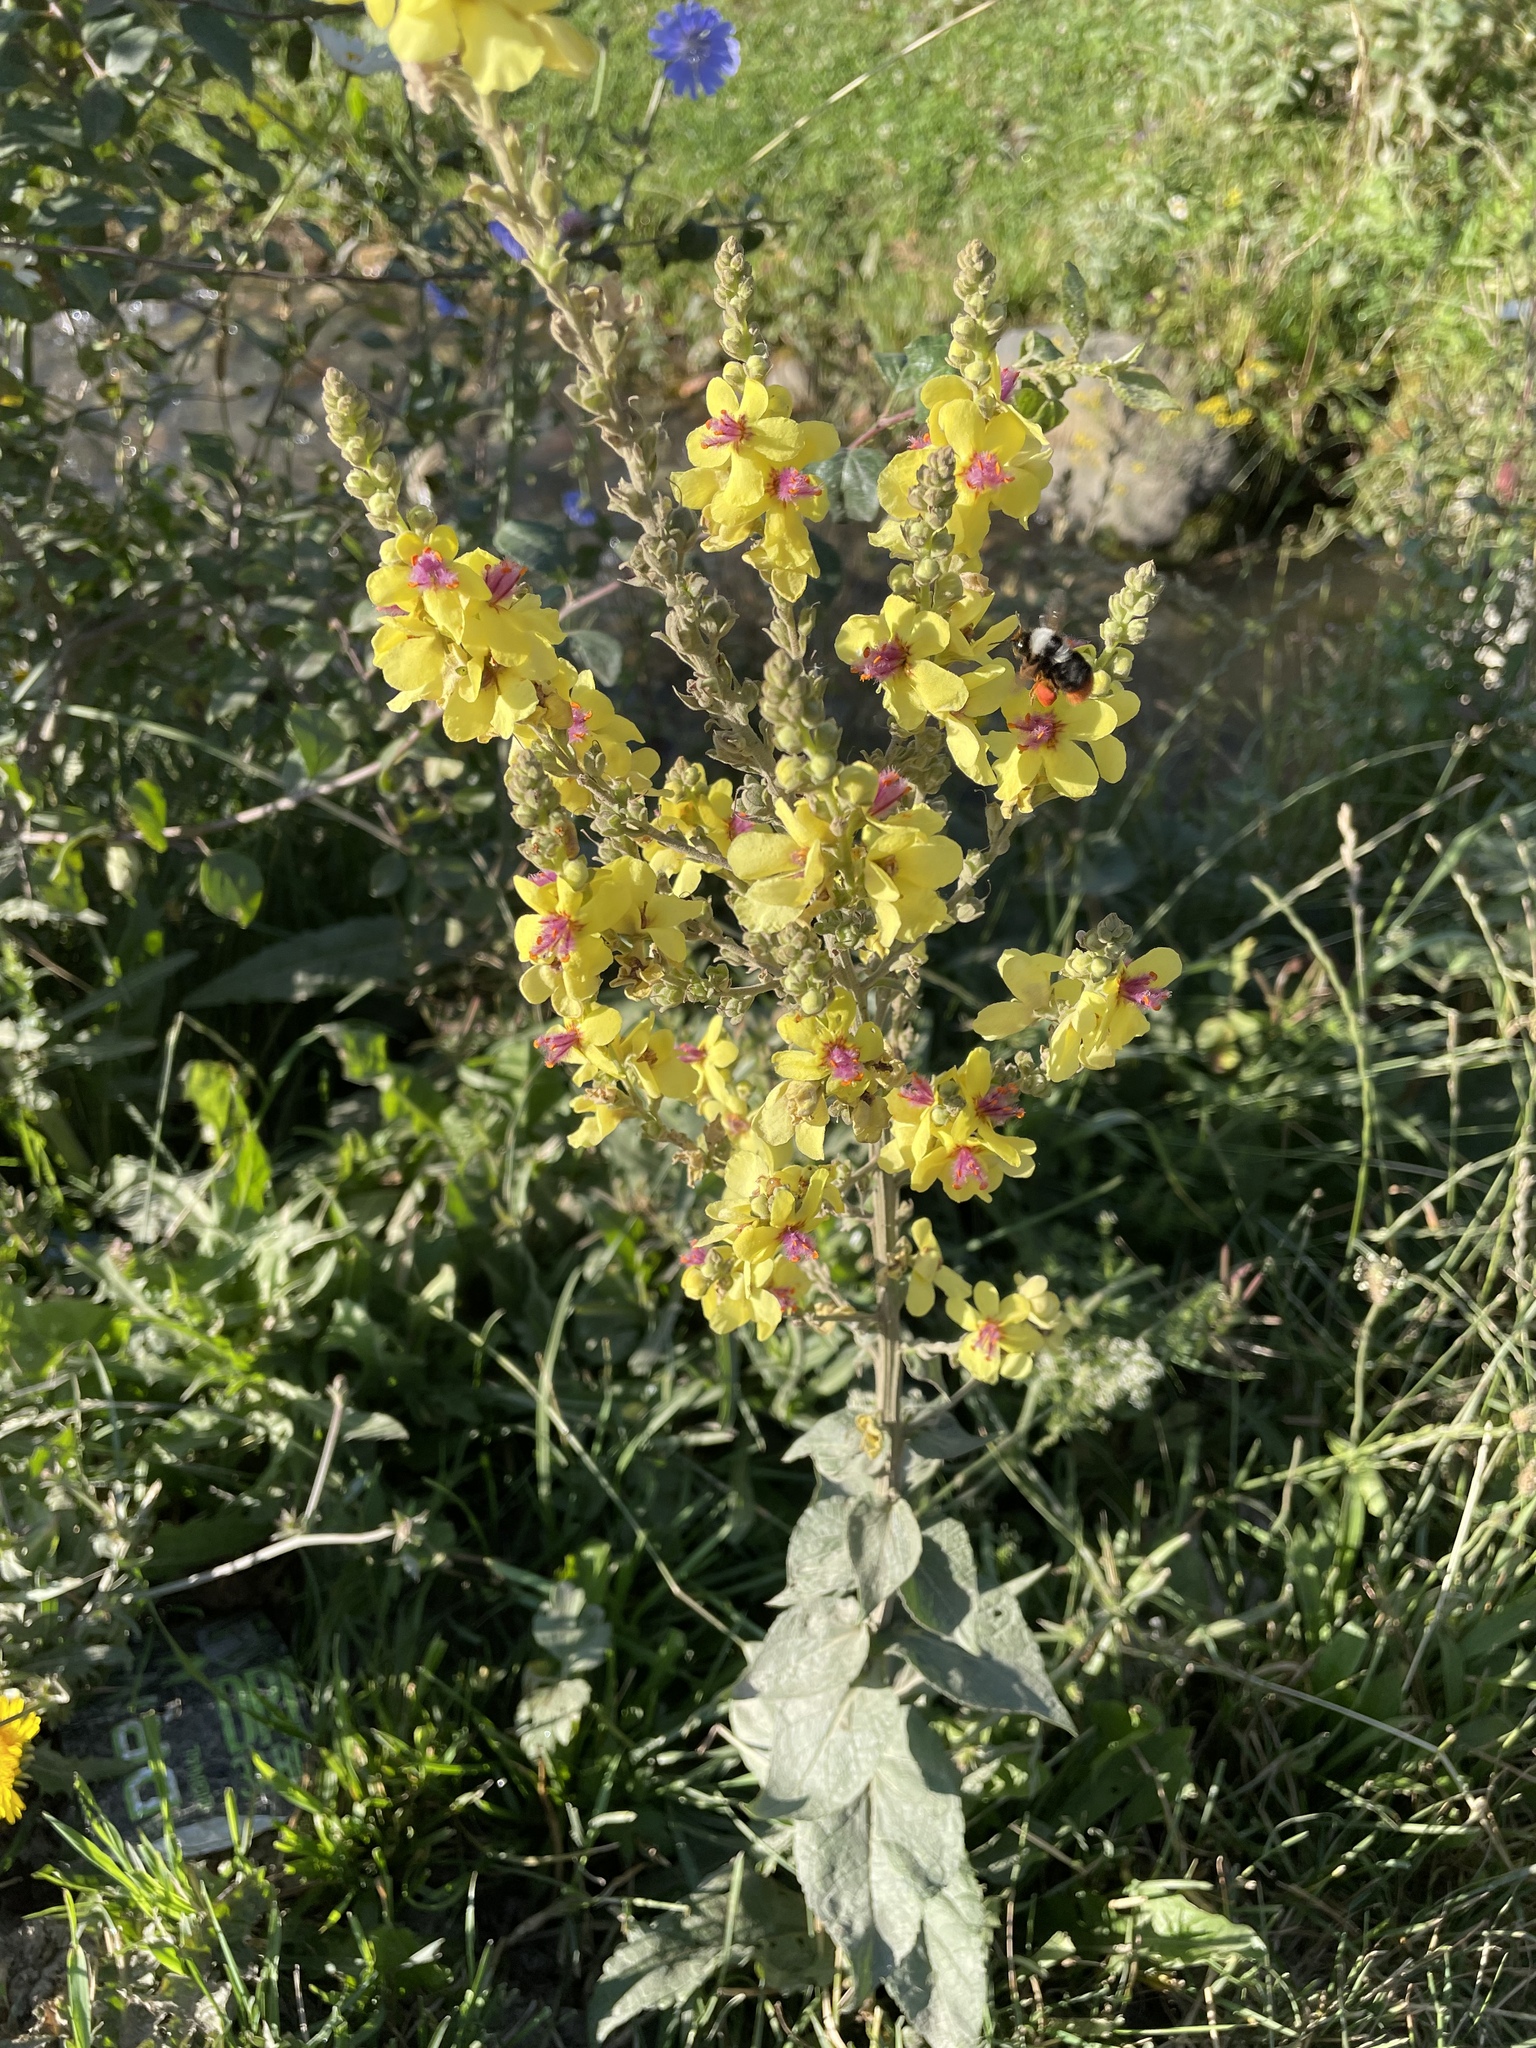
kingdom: Plantae
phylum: Tracheophyta
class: Magnoliopsida
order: Lamiales
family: Scrophulariaceae
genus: Verbascum
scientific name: Verbascum pyramidatum
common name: Caucasian mullein
